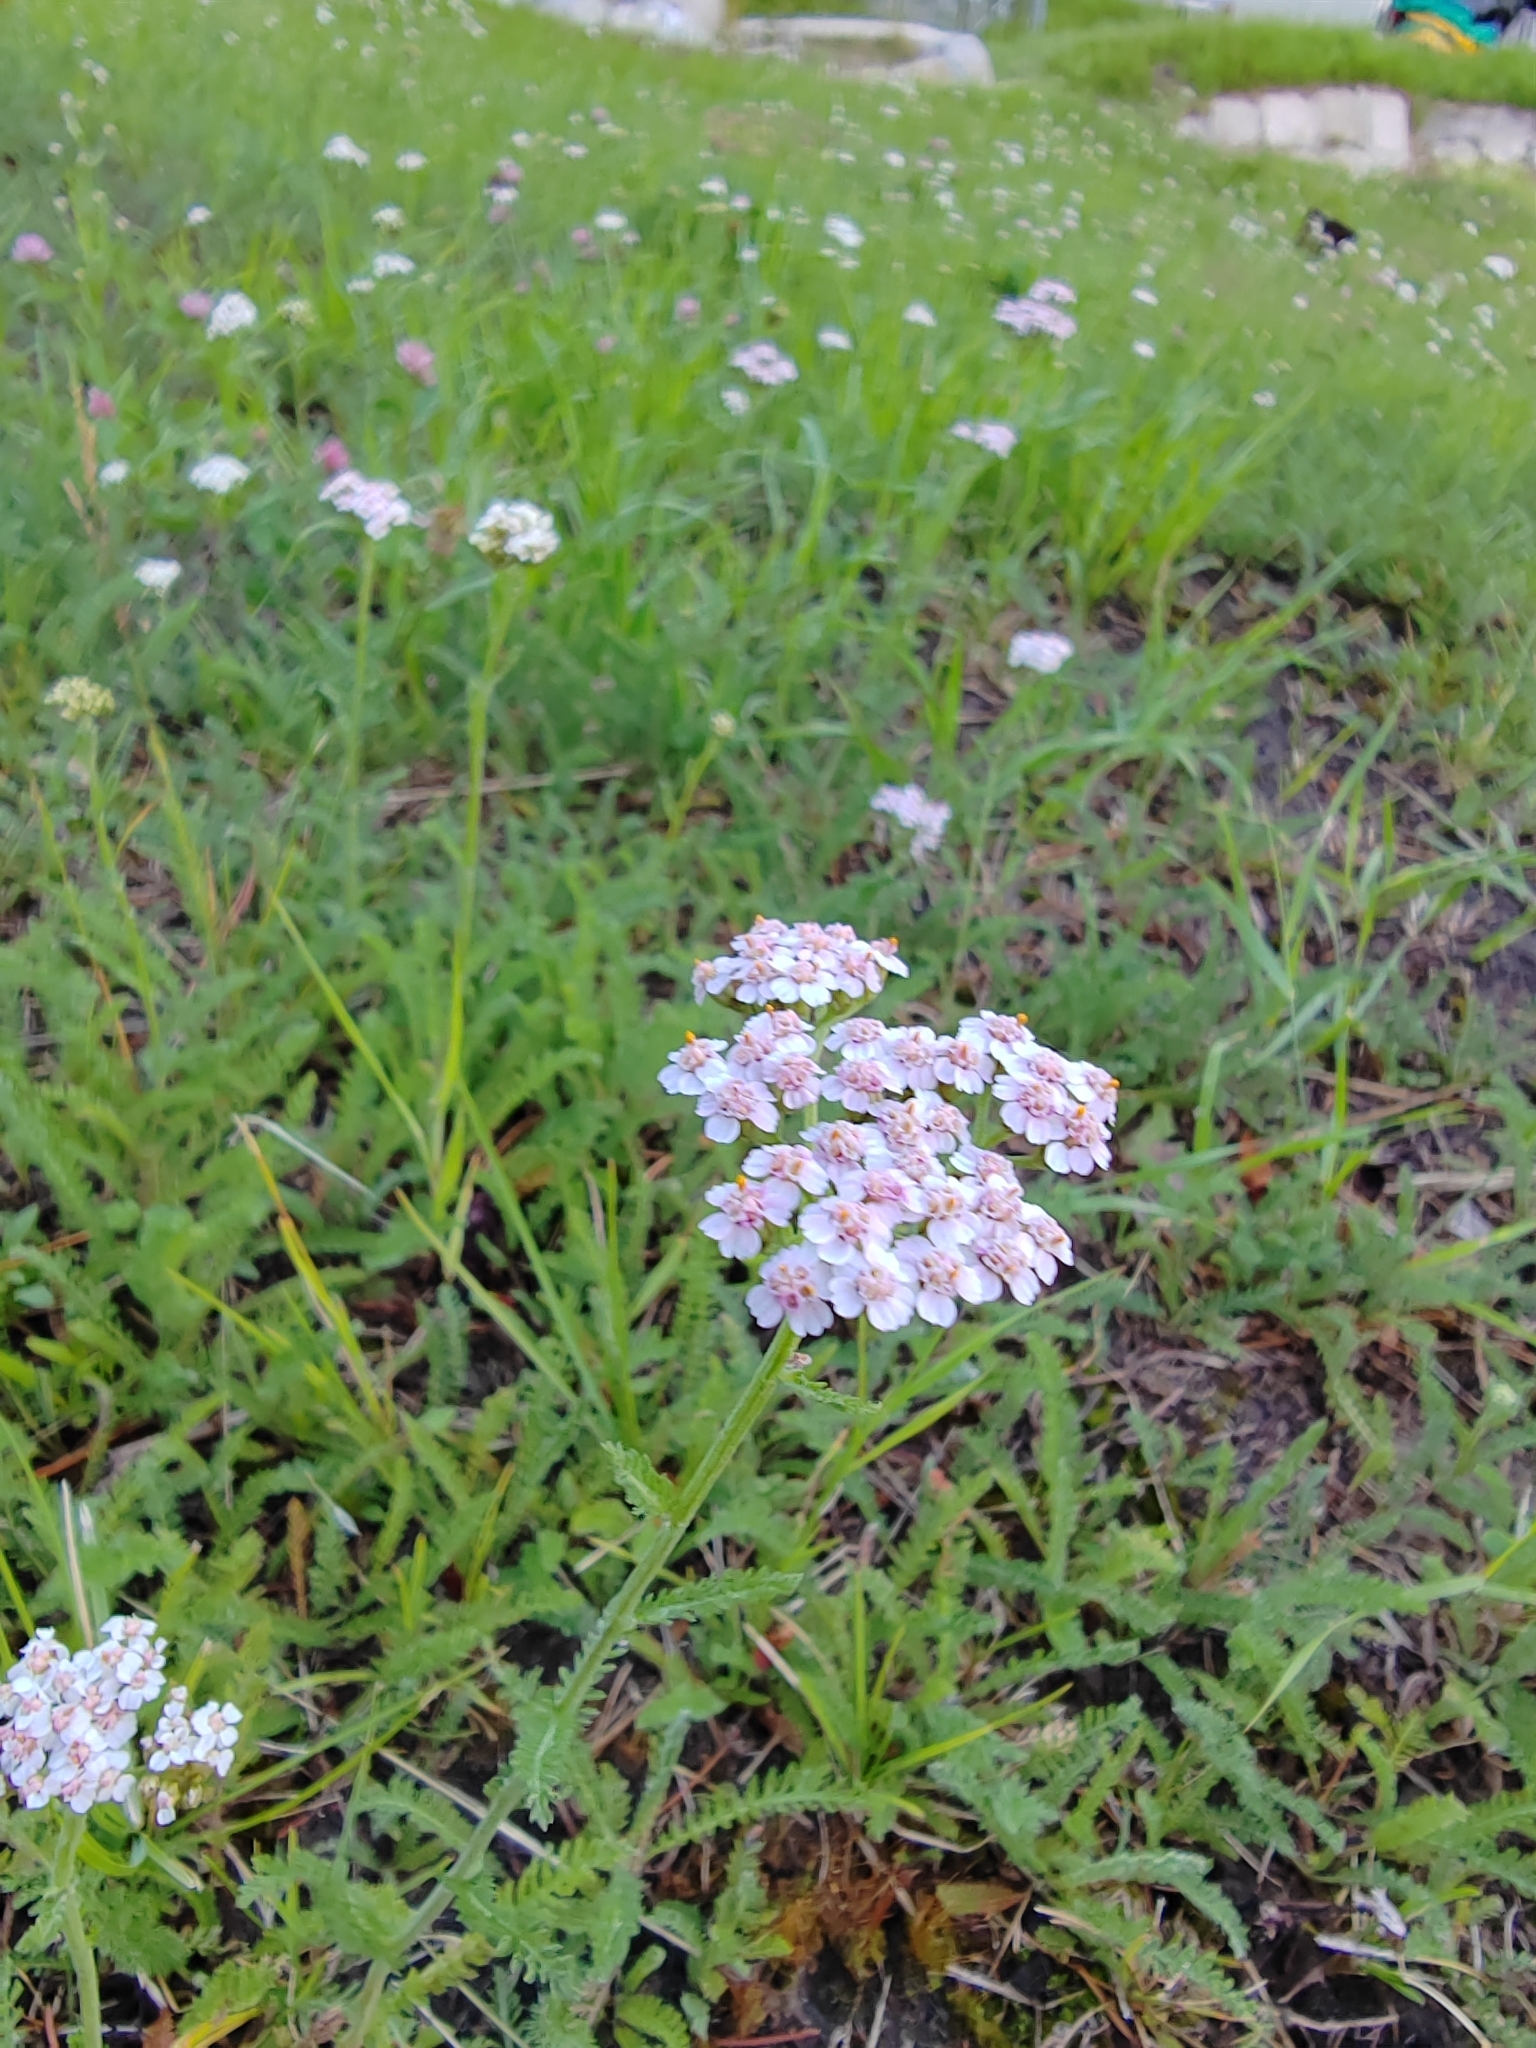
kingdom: Plantae
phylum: Tracheophyta
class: Magnoliopsida
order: Asterales
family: Asteraceae
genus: Achillea
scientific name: Achillea
